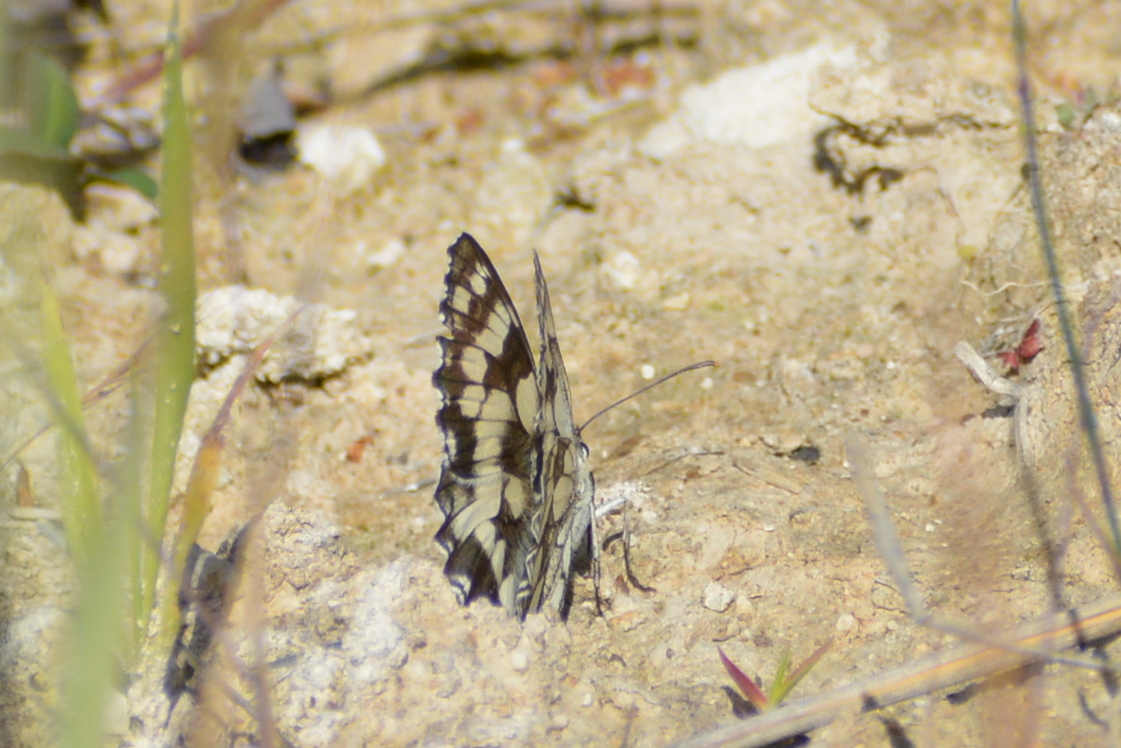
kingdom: Animalia
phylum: Arthropoda
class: Insecta
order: Lepidoptera
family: Nymphalidae
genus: Melanargia
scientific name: Melanargia galathea
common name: Marbled white
